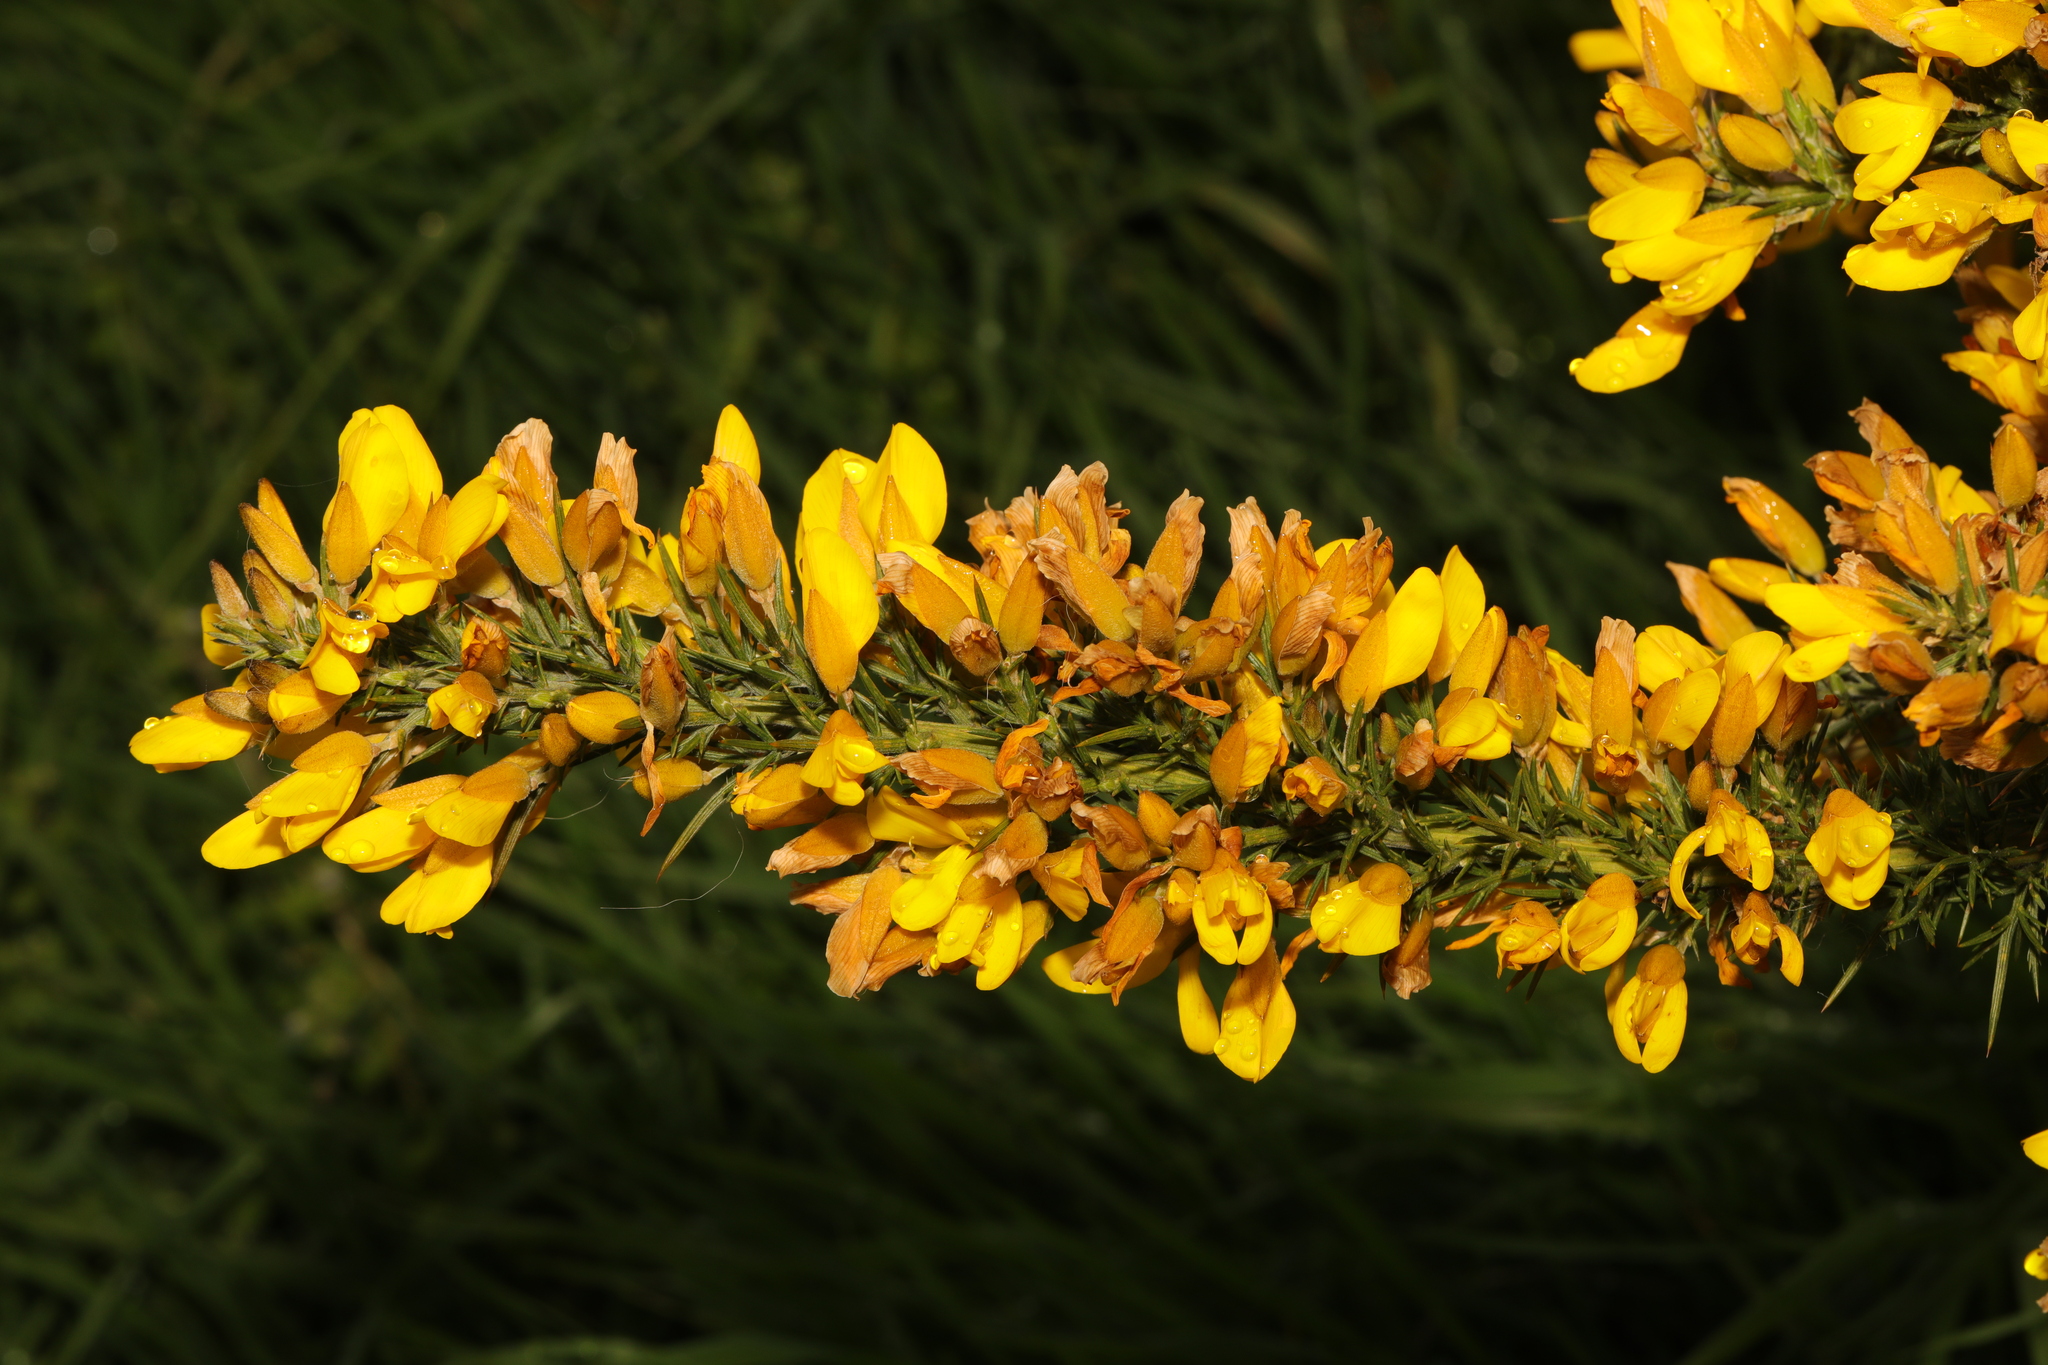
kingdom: Plantae
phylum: Tracheophyta
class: Magnoliopsida
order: Fabales
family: Fabaceae
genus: Ulex
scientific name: Ulex europaeus
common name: Common gorse
